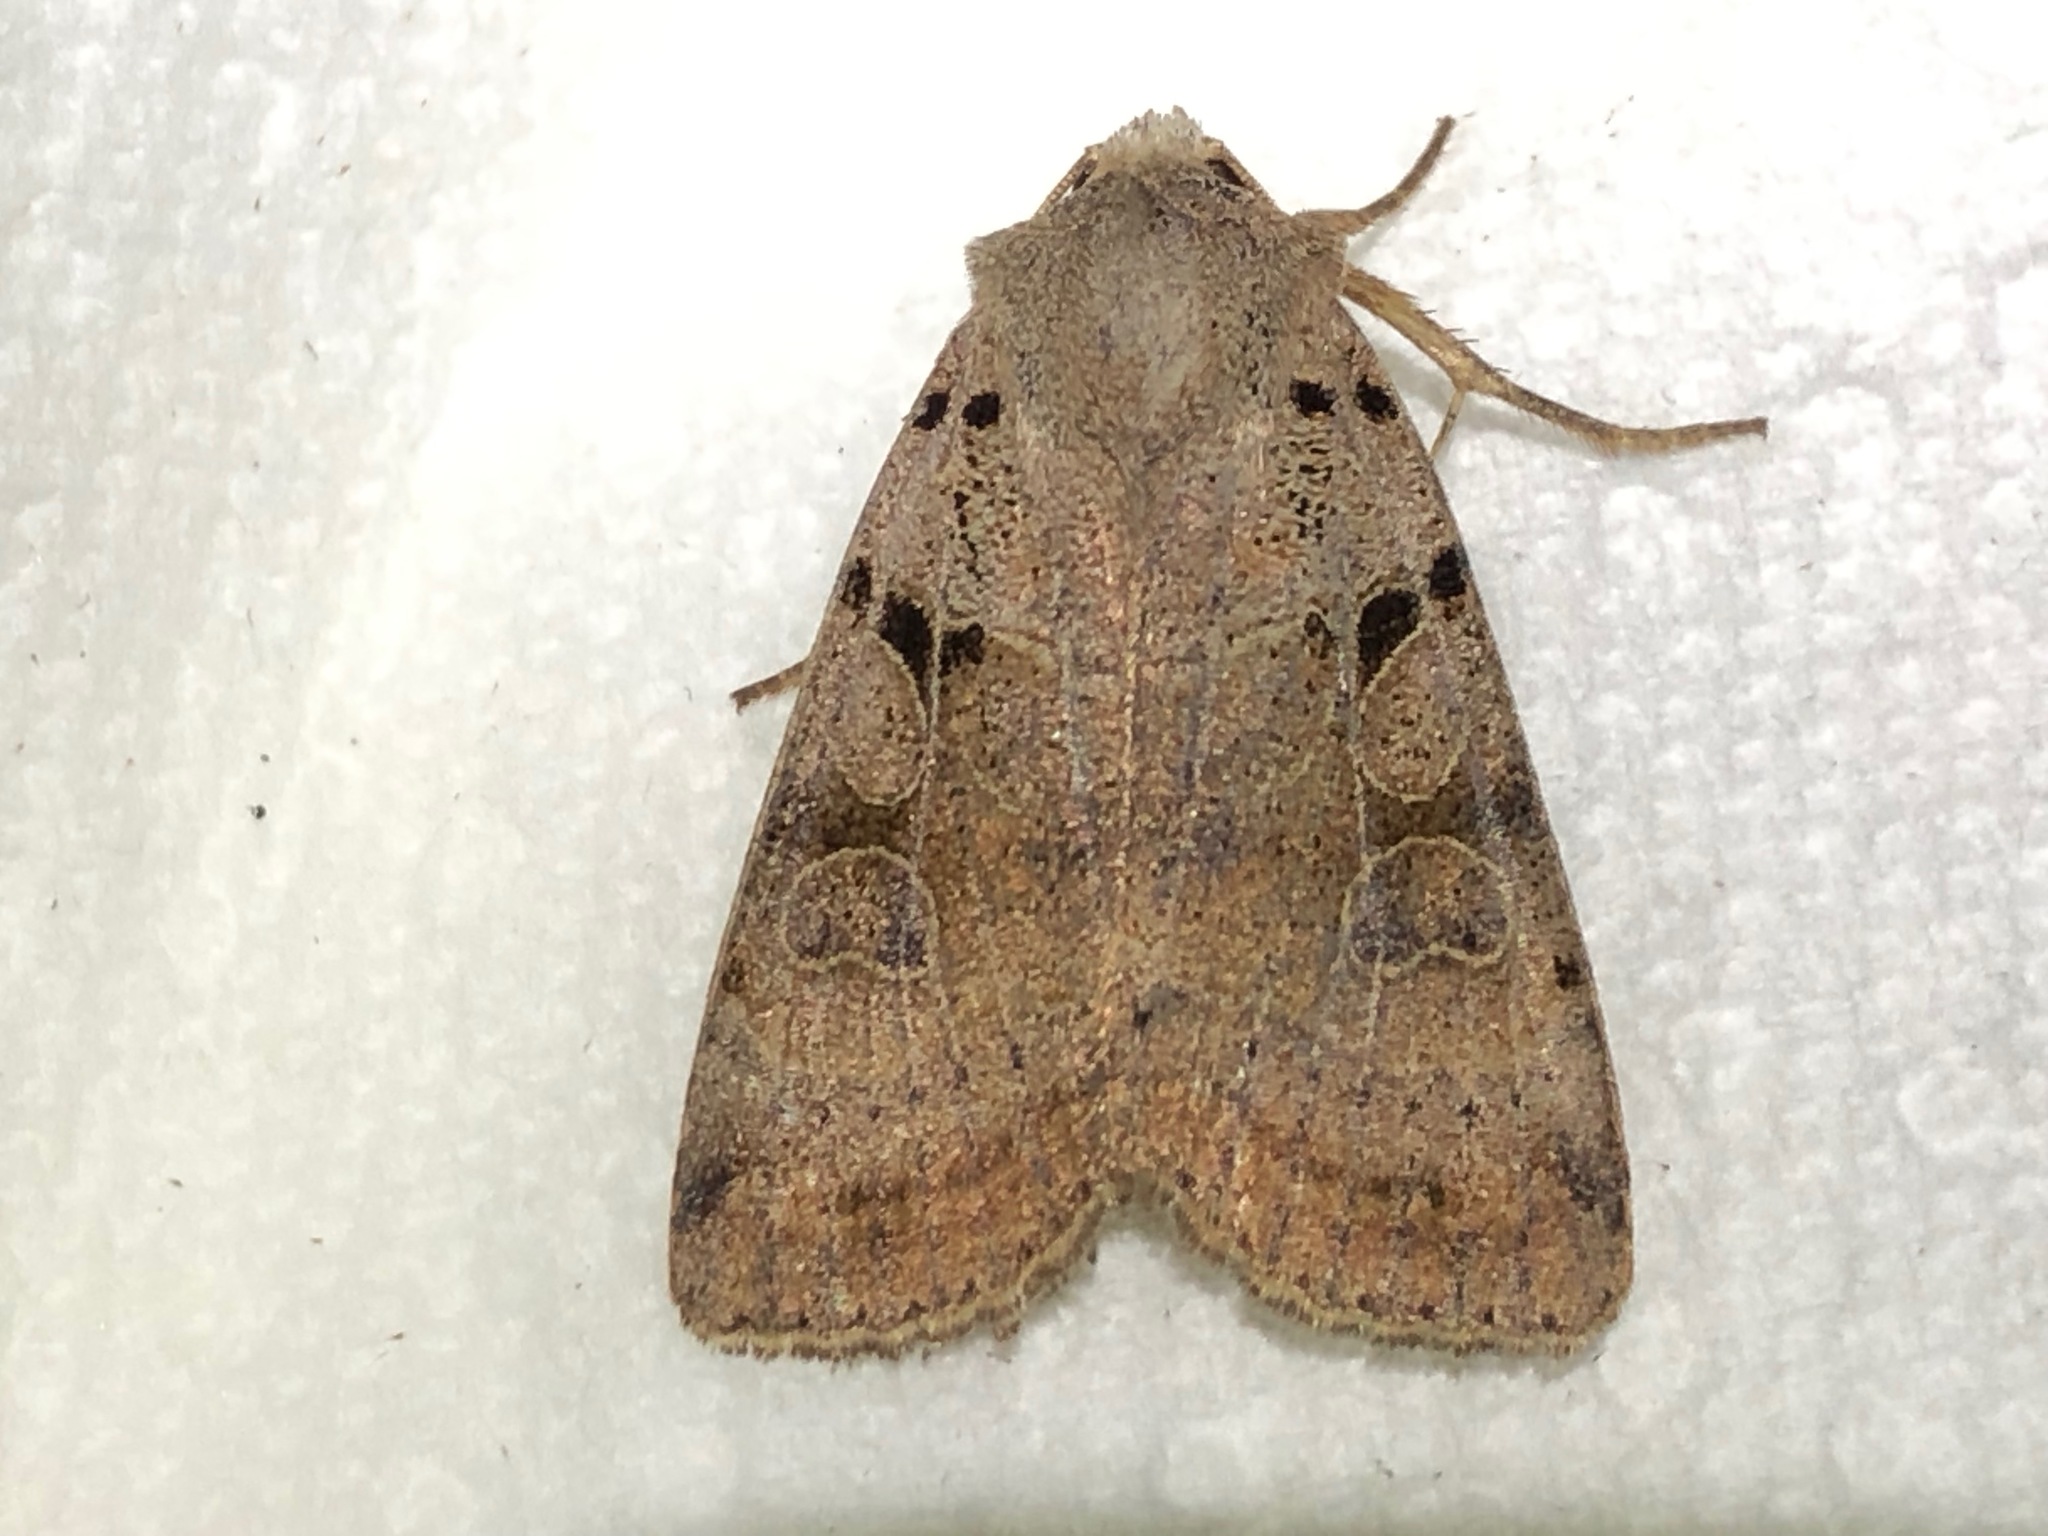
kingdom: Animalia
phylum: Arthropoda
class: Insecta
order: Lepidoptera
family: Noctuidae
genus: Eugnorisma
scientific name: Eugnorisma depuncta
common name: Plain clay
